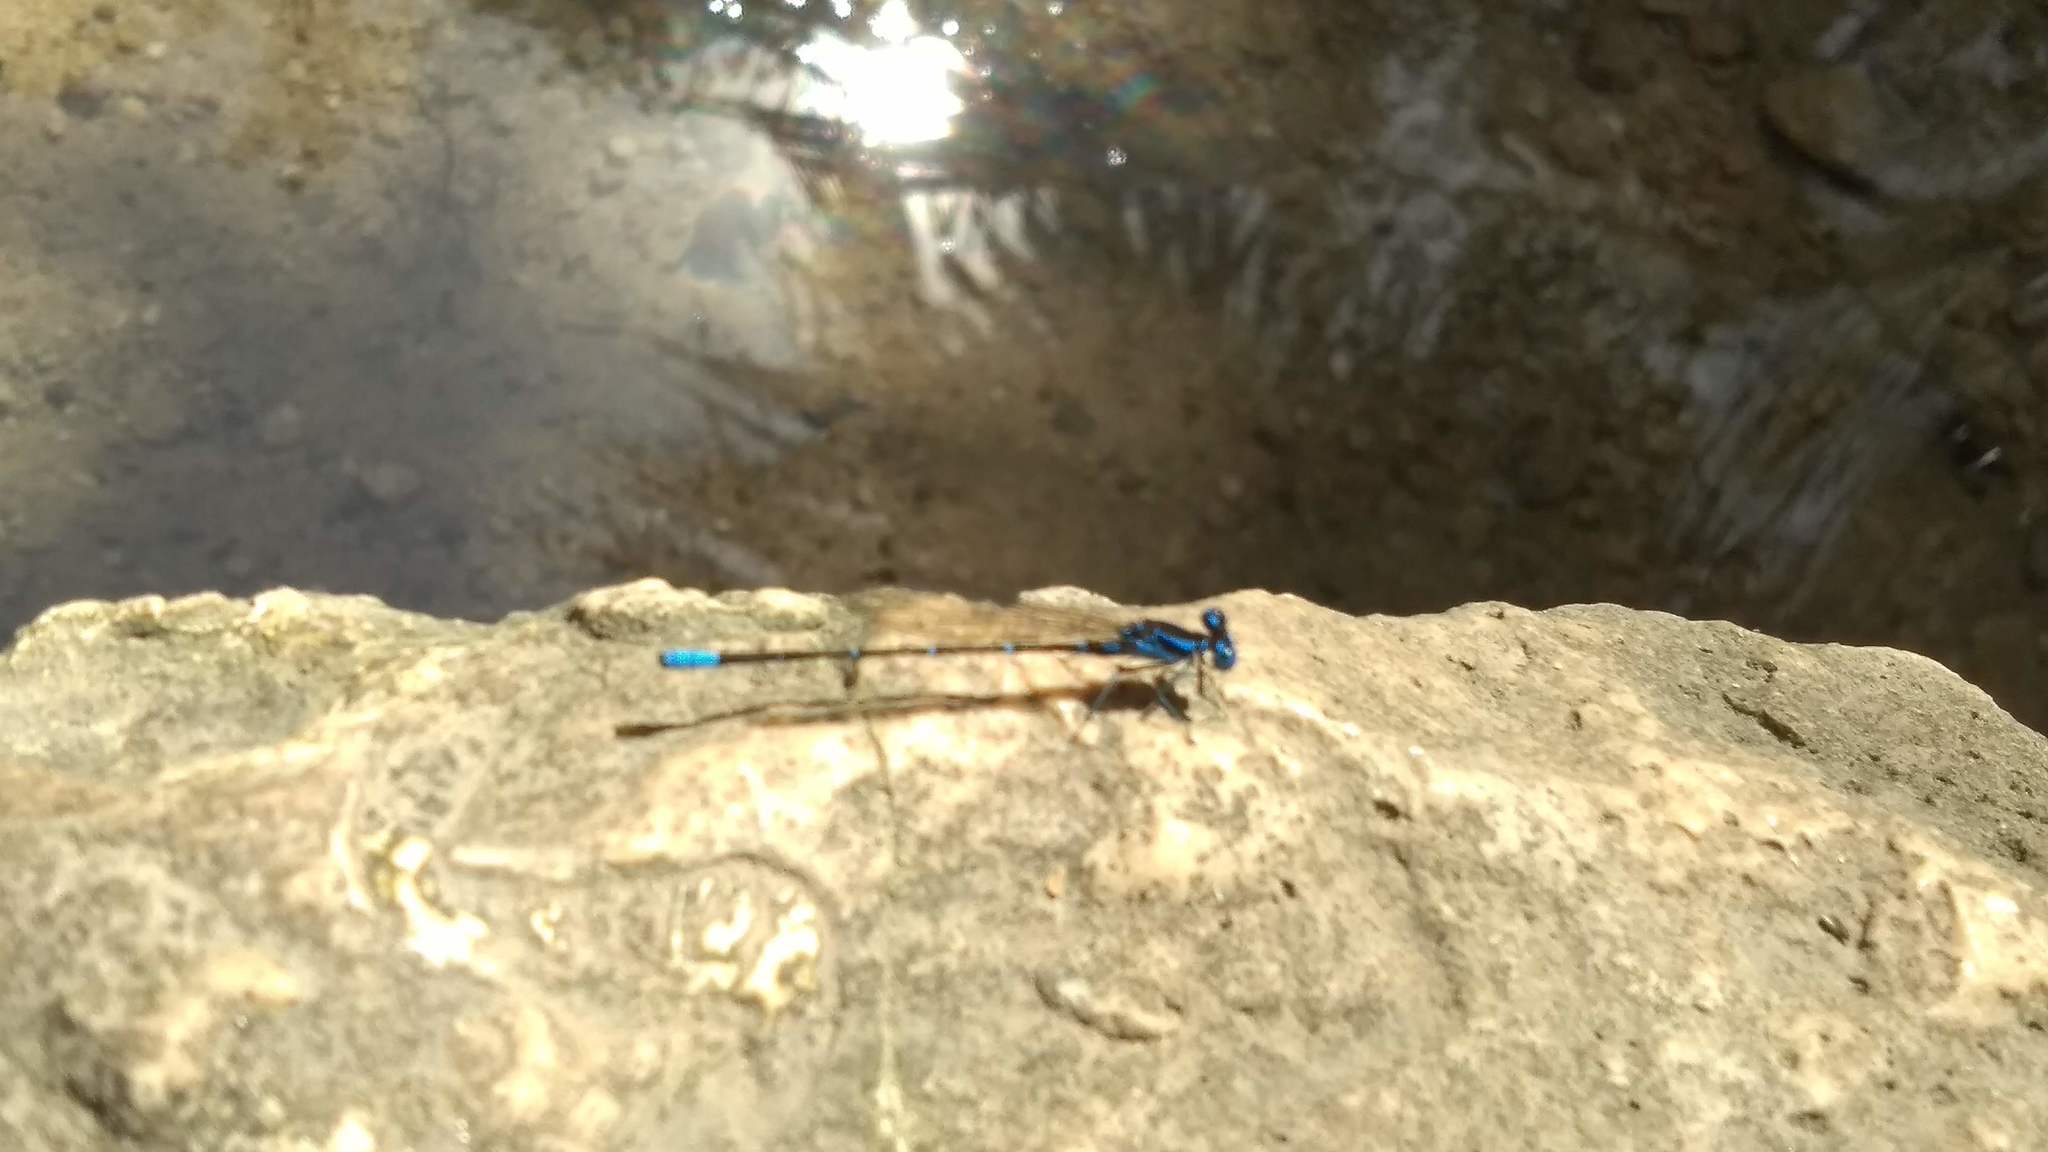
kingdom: Animalia
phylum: Arthropoda
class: Insecta
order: Odonata
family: Coenagrionidae
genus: Argia
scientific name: Argia gaumeri
